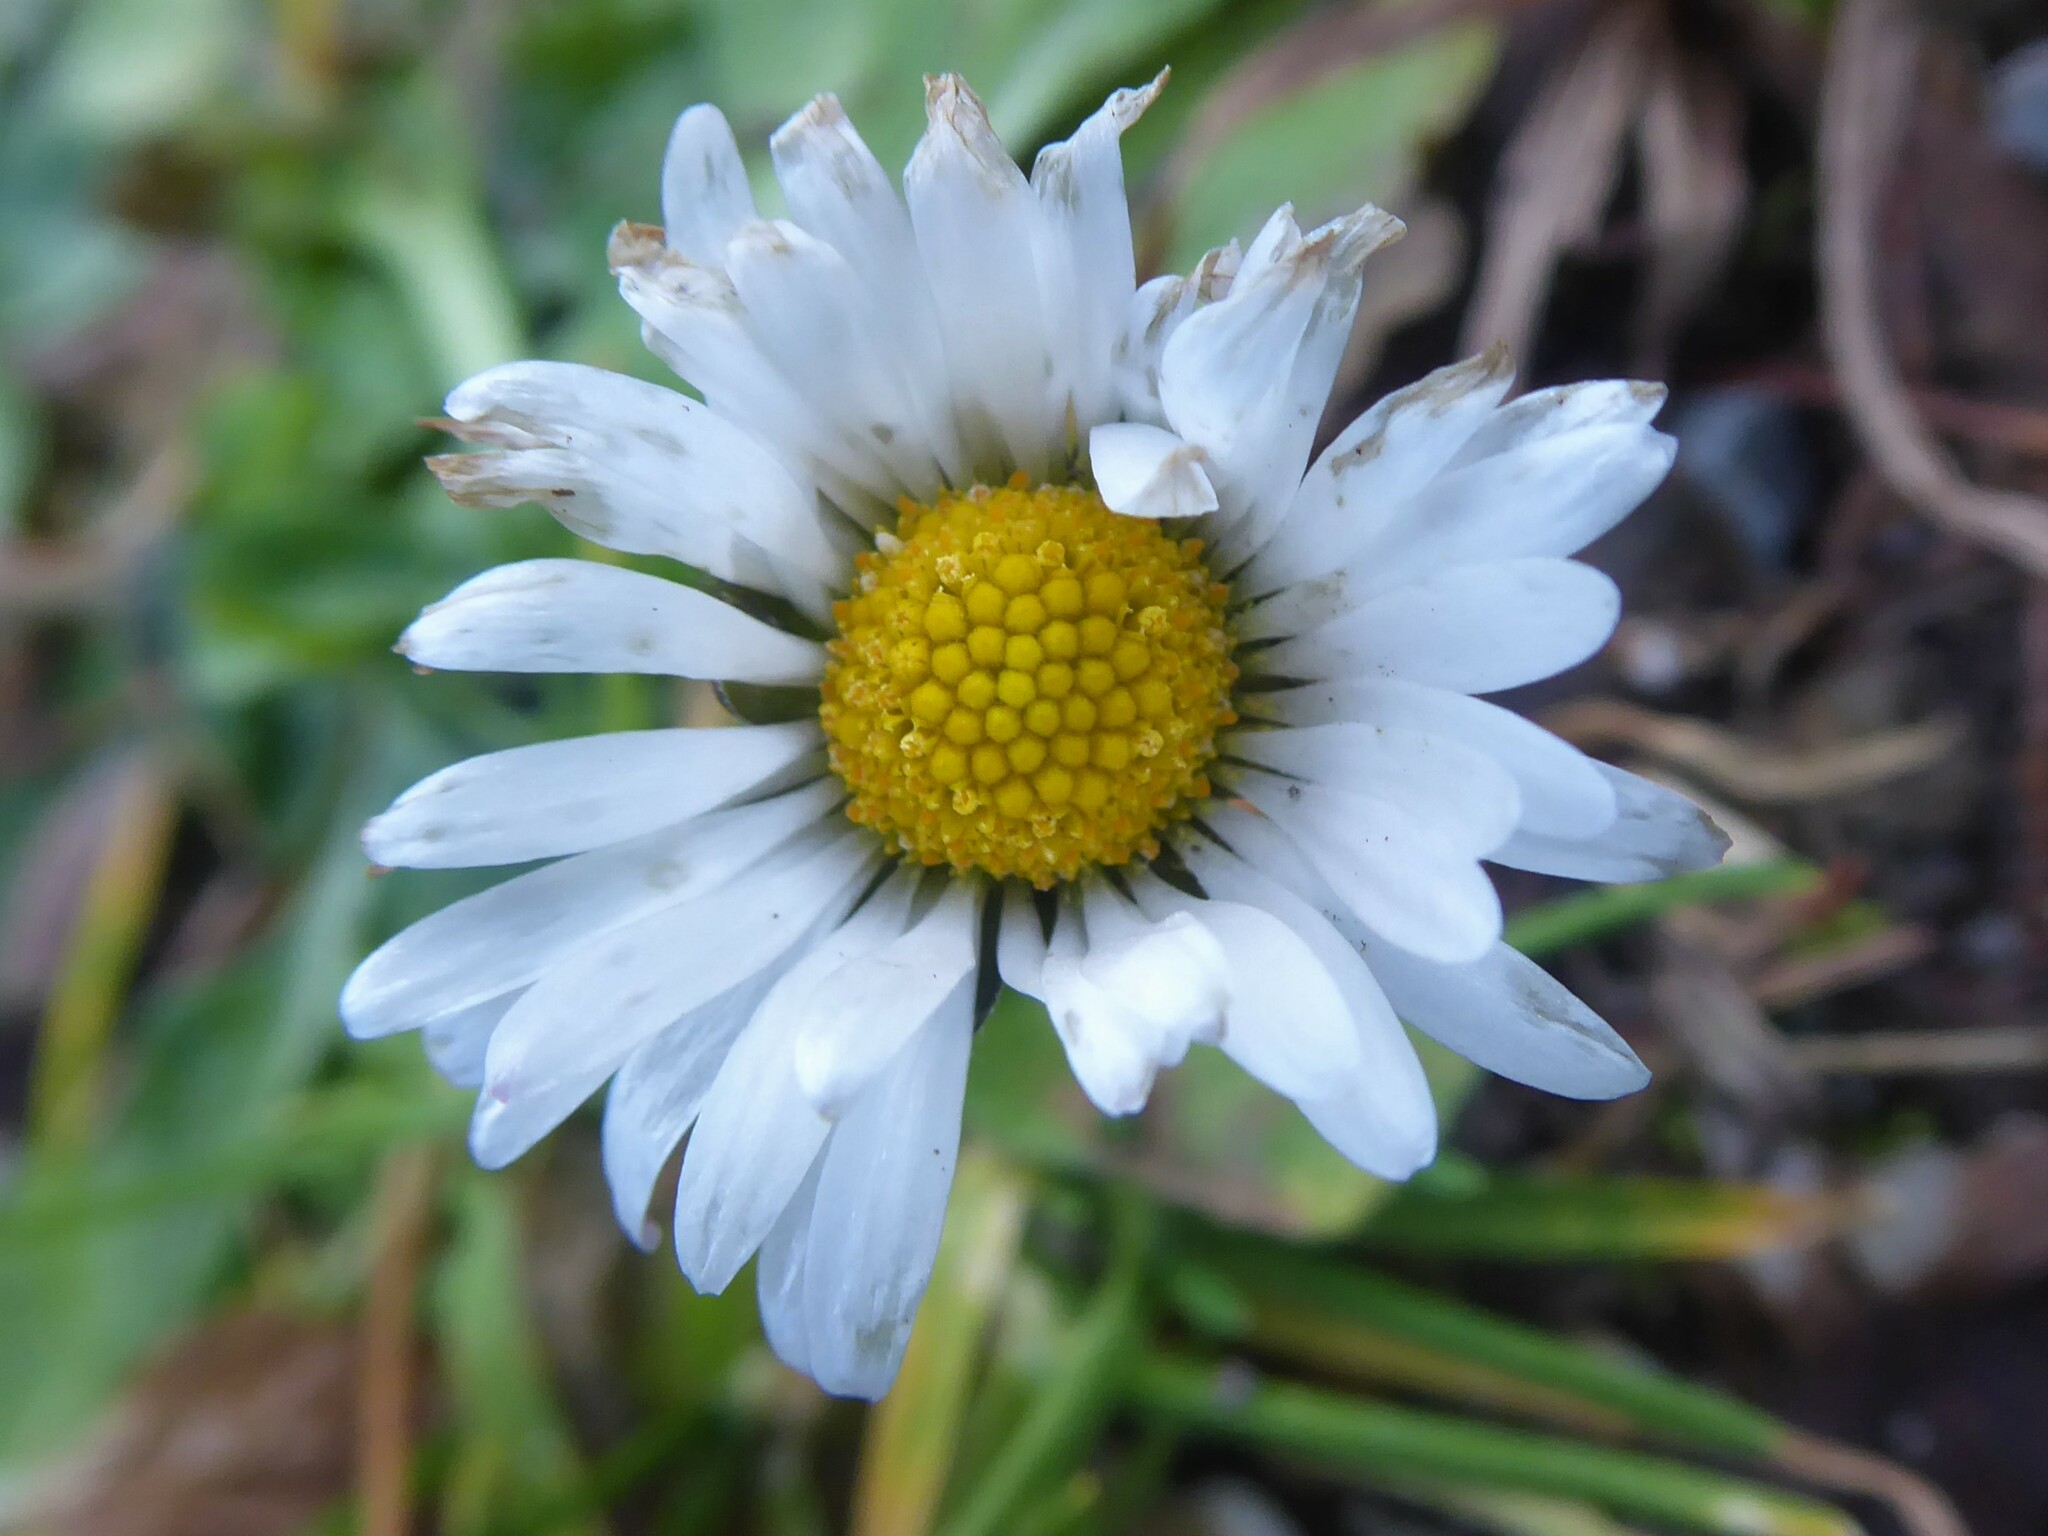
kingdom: Plantae
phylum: Tracheophyta
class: Magnoliopsida
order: Asterales
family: Asteraceae
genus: Bellis
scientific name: Bellis perennis
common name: Lawndaisy
